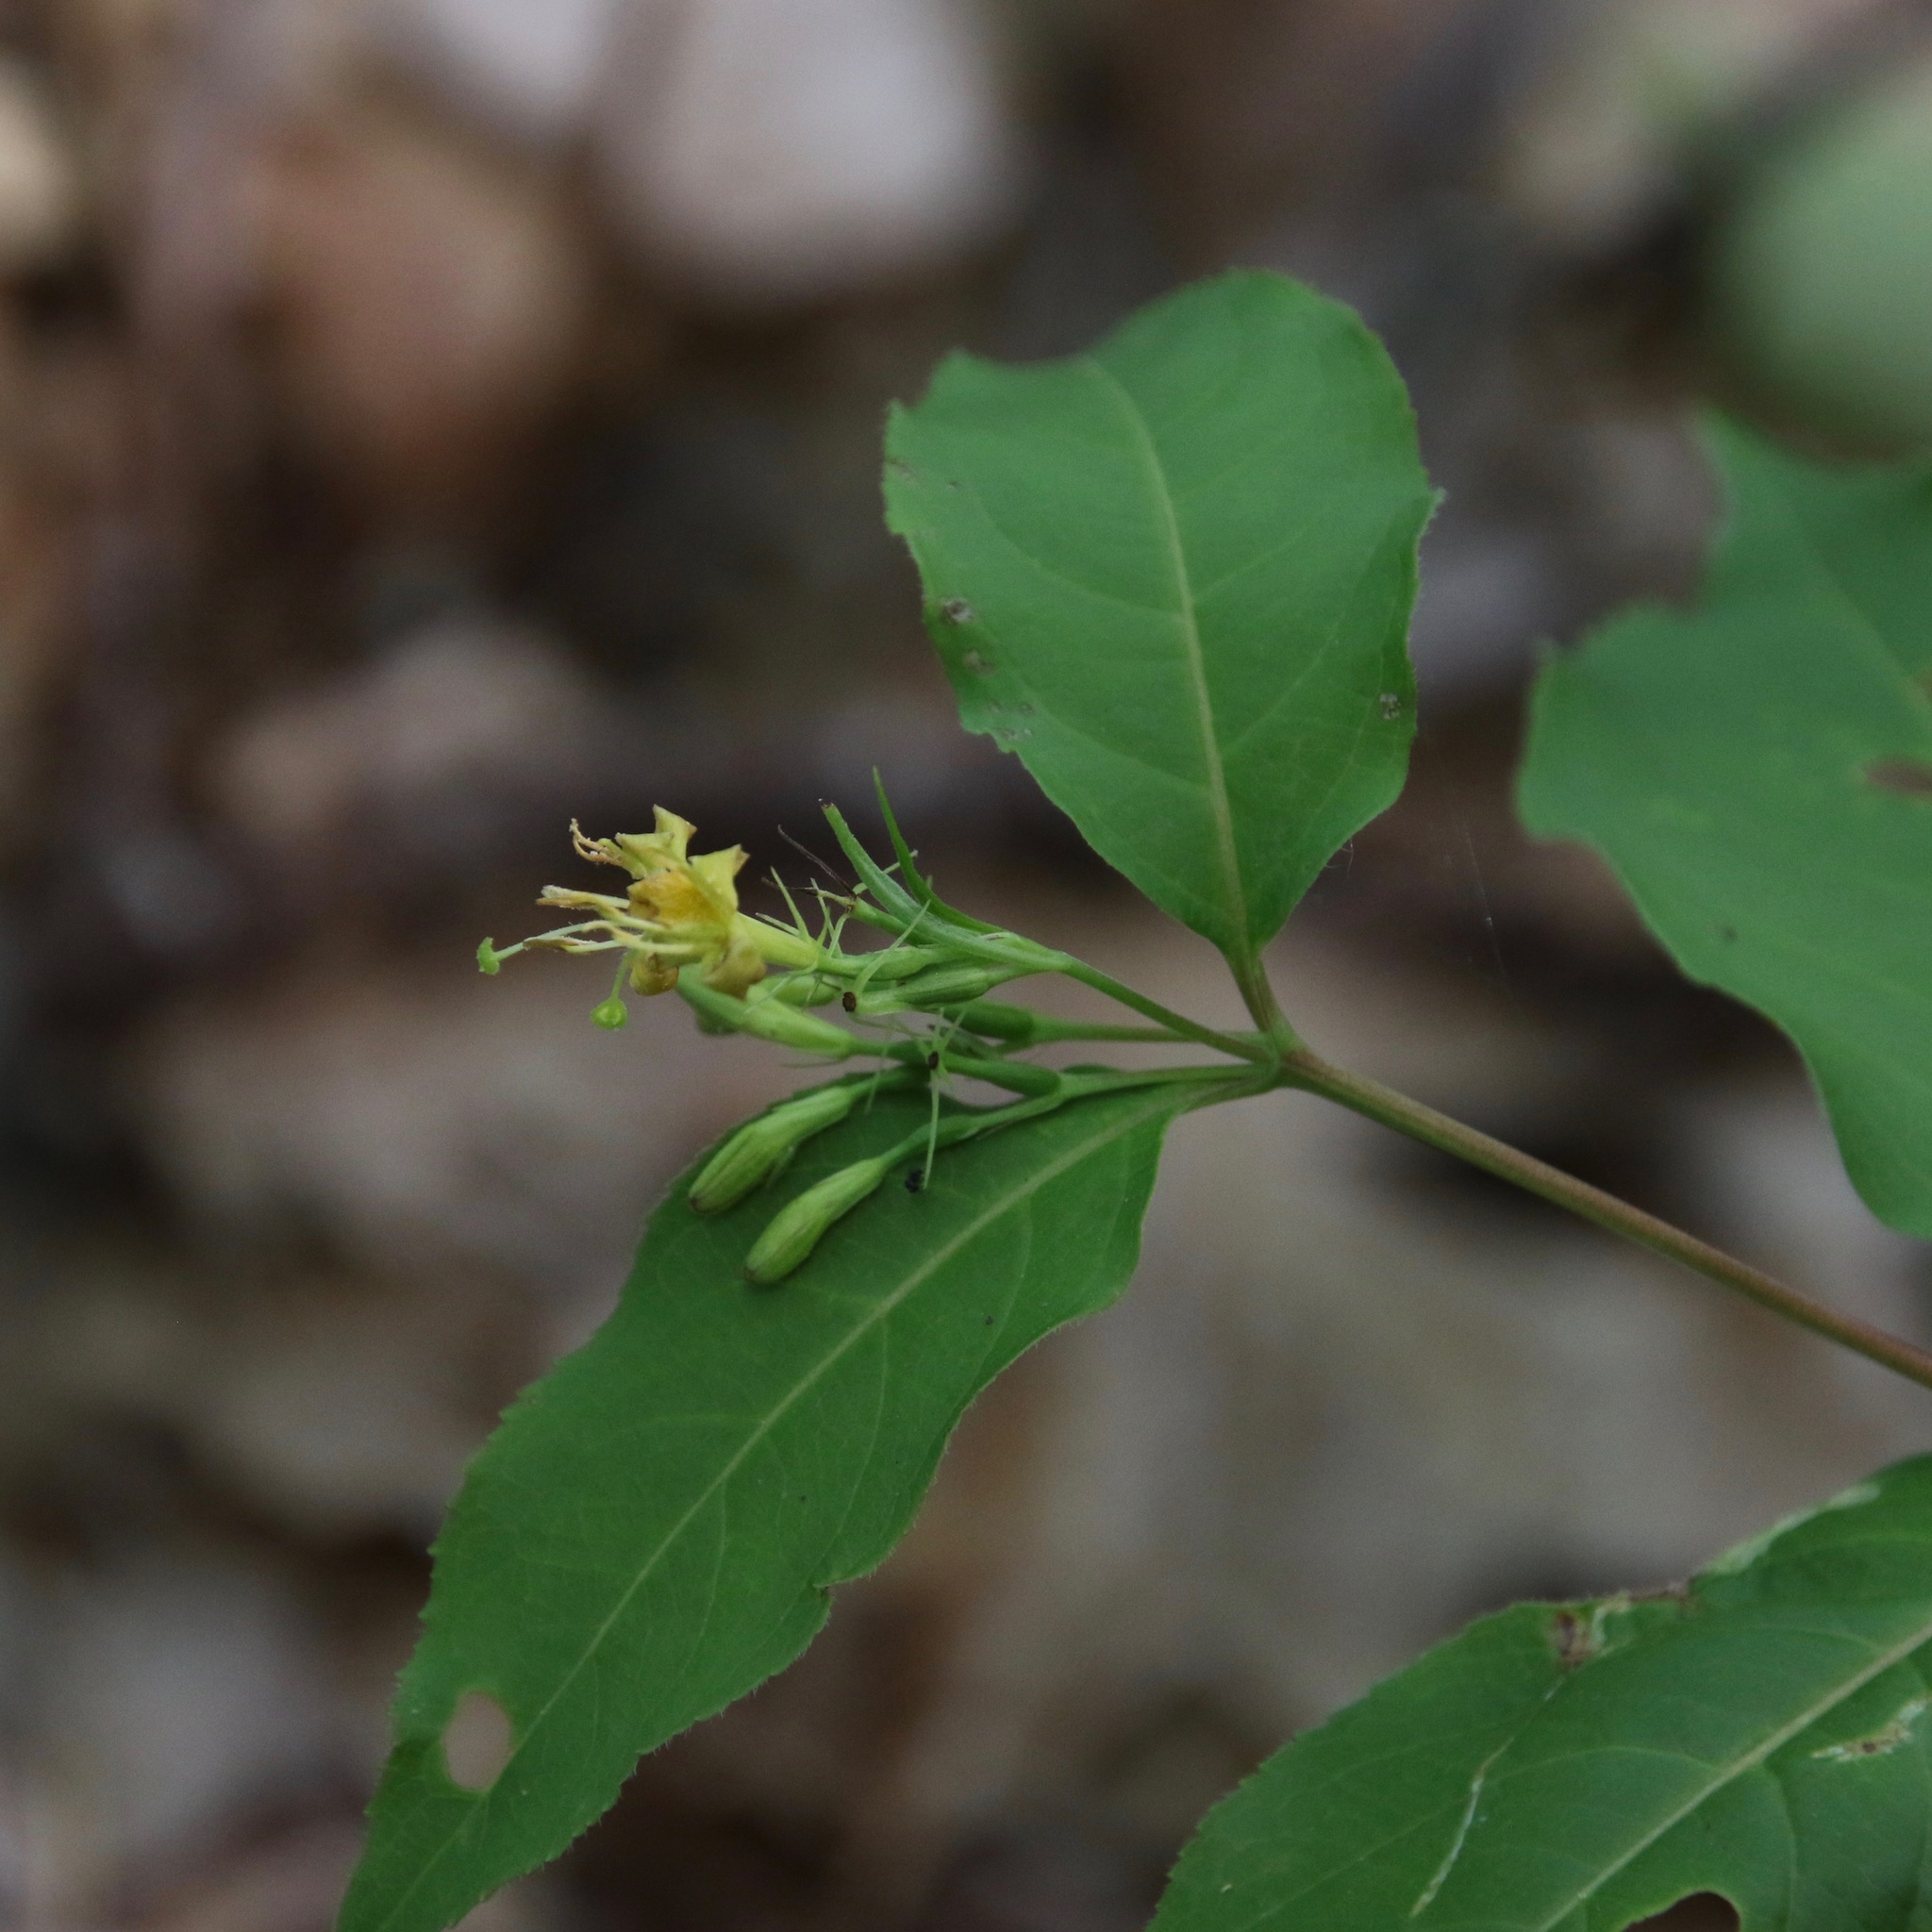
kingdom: Plantae
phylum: Tracheophyta
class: Magnoliopsida
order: Dipsacales
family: Caprifoliaceae
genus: Diervilla
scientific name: Diervilla lonicera
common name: Bush-honeysuckle
